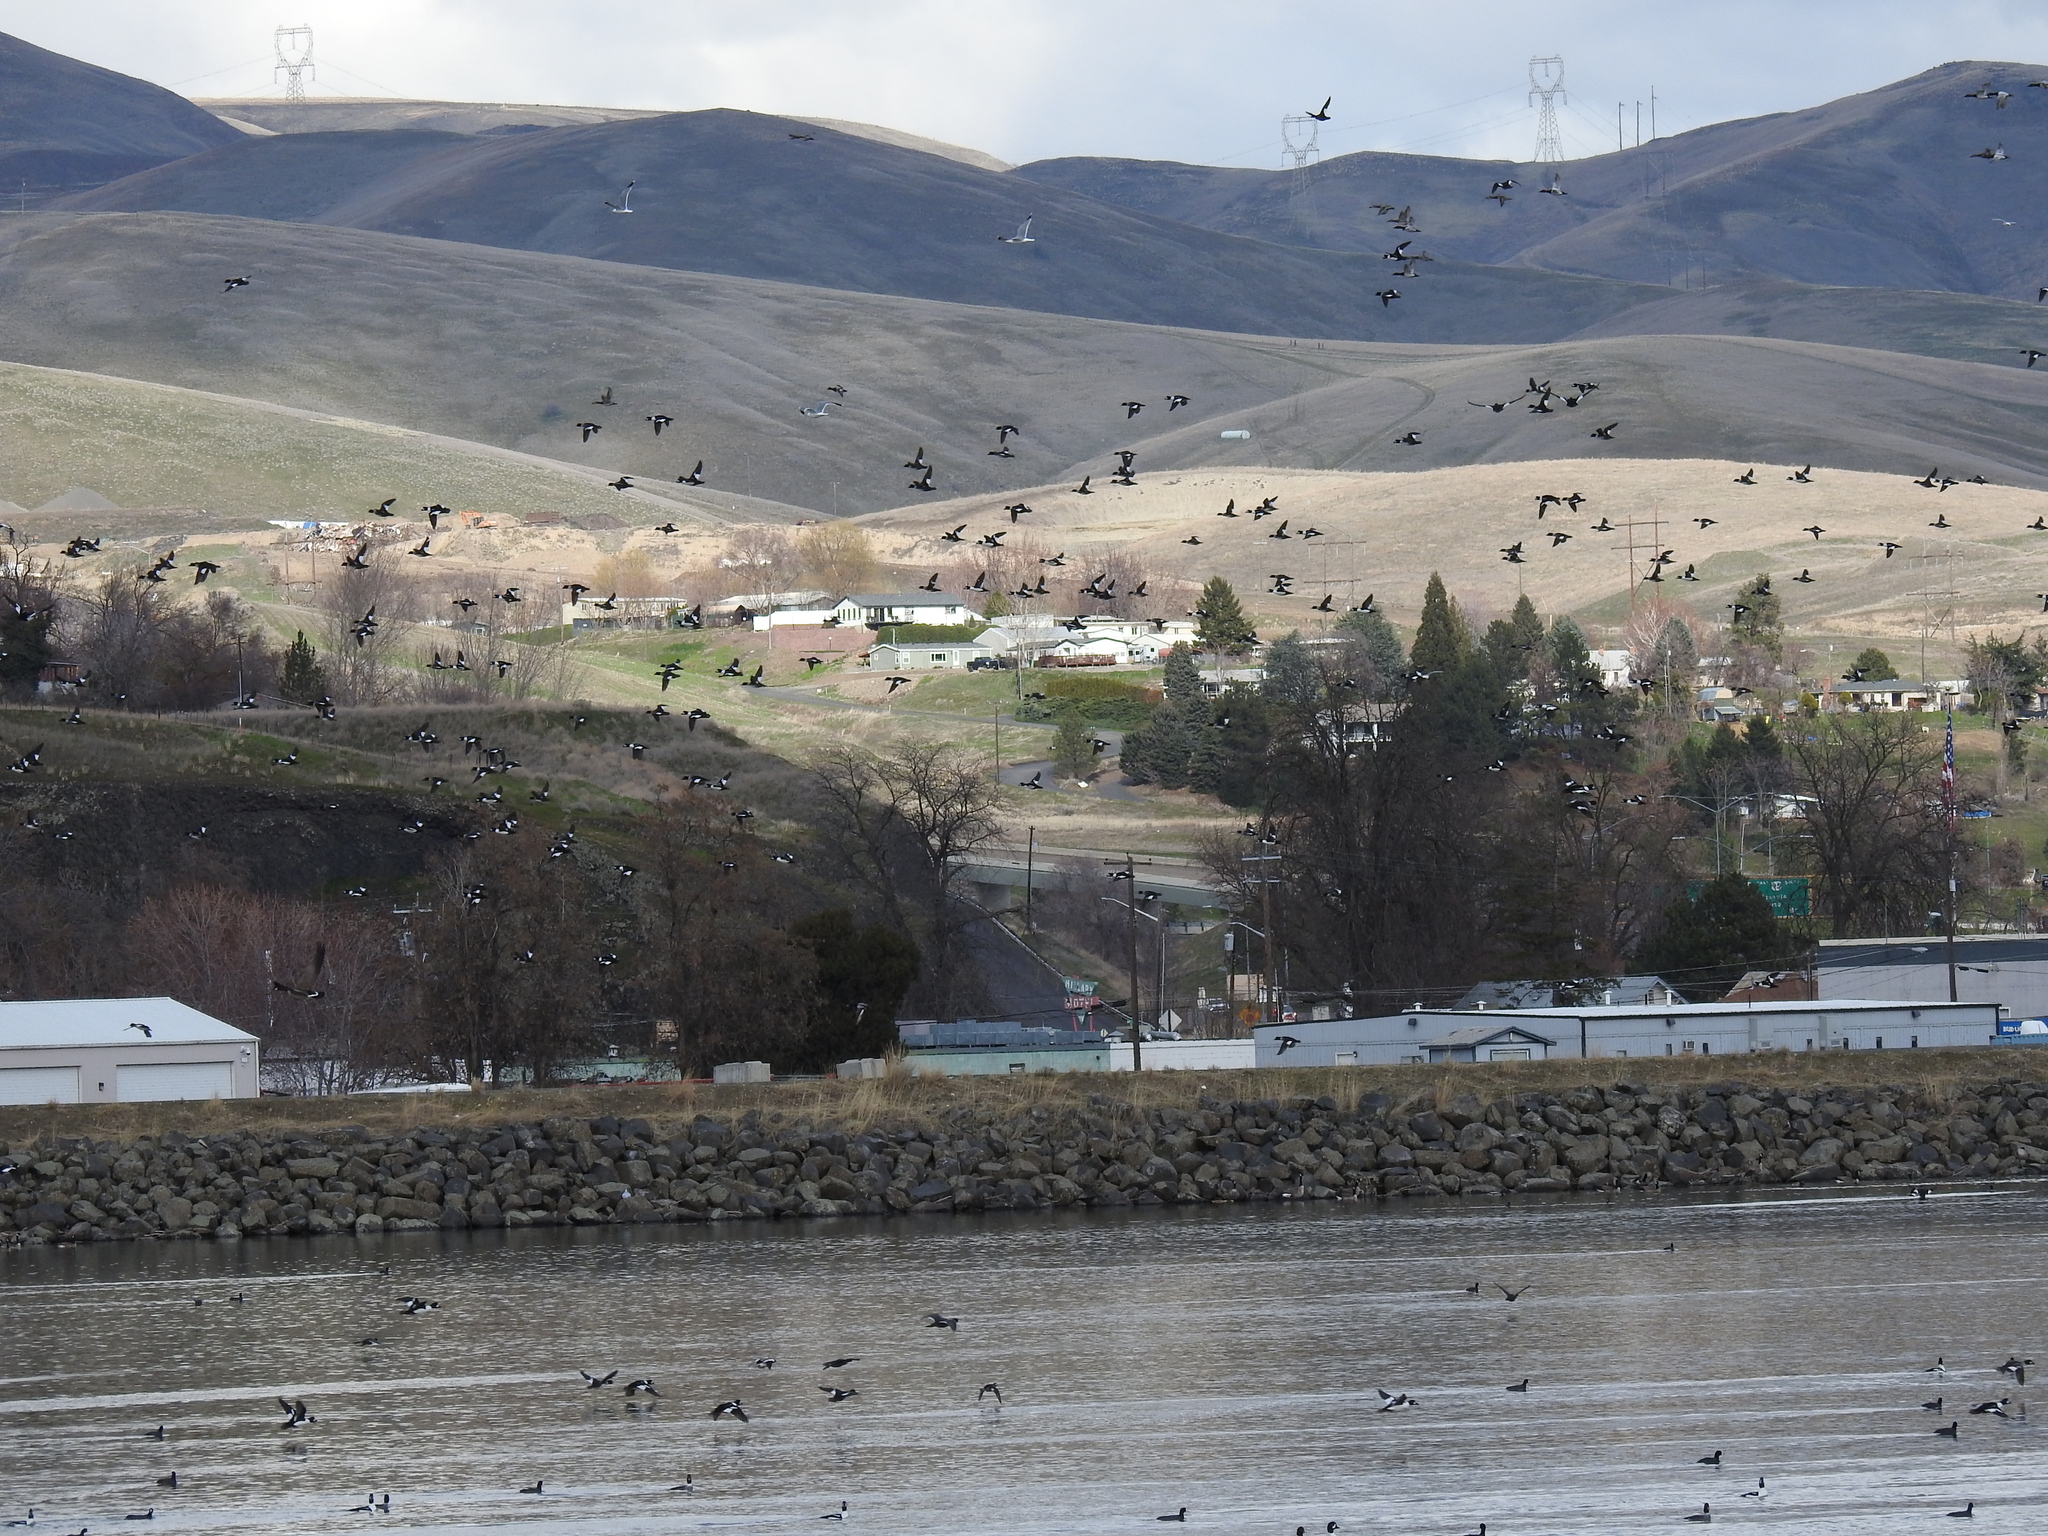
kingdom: Animalia
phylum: Chordata
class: Aves
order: Anseriformes
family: Anatidae
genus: Bucephala
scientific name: Bucephala islandica
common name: Barrow's goldeneye
